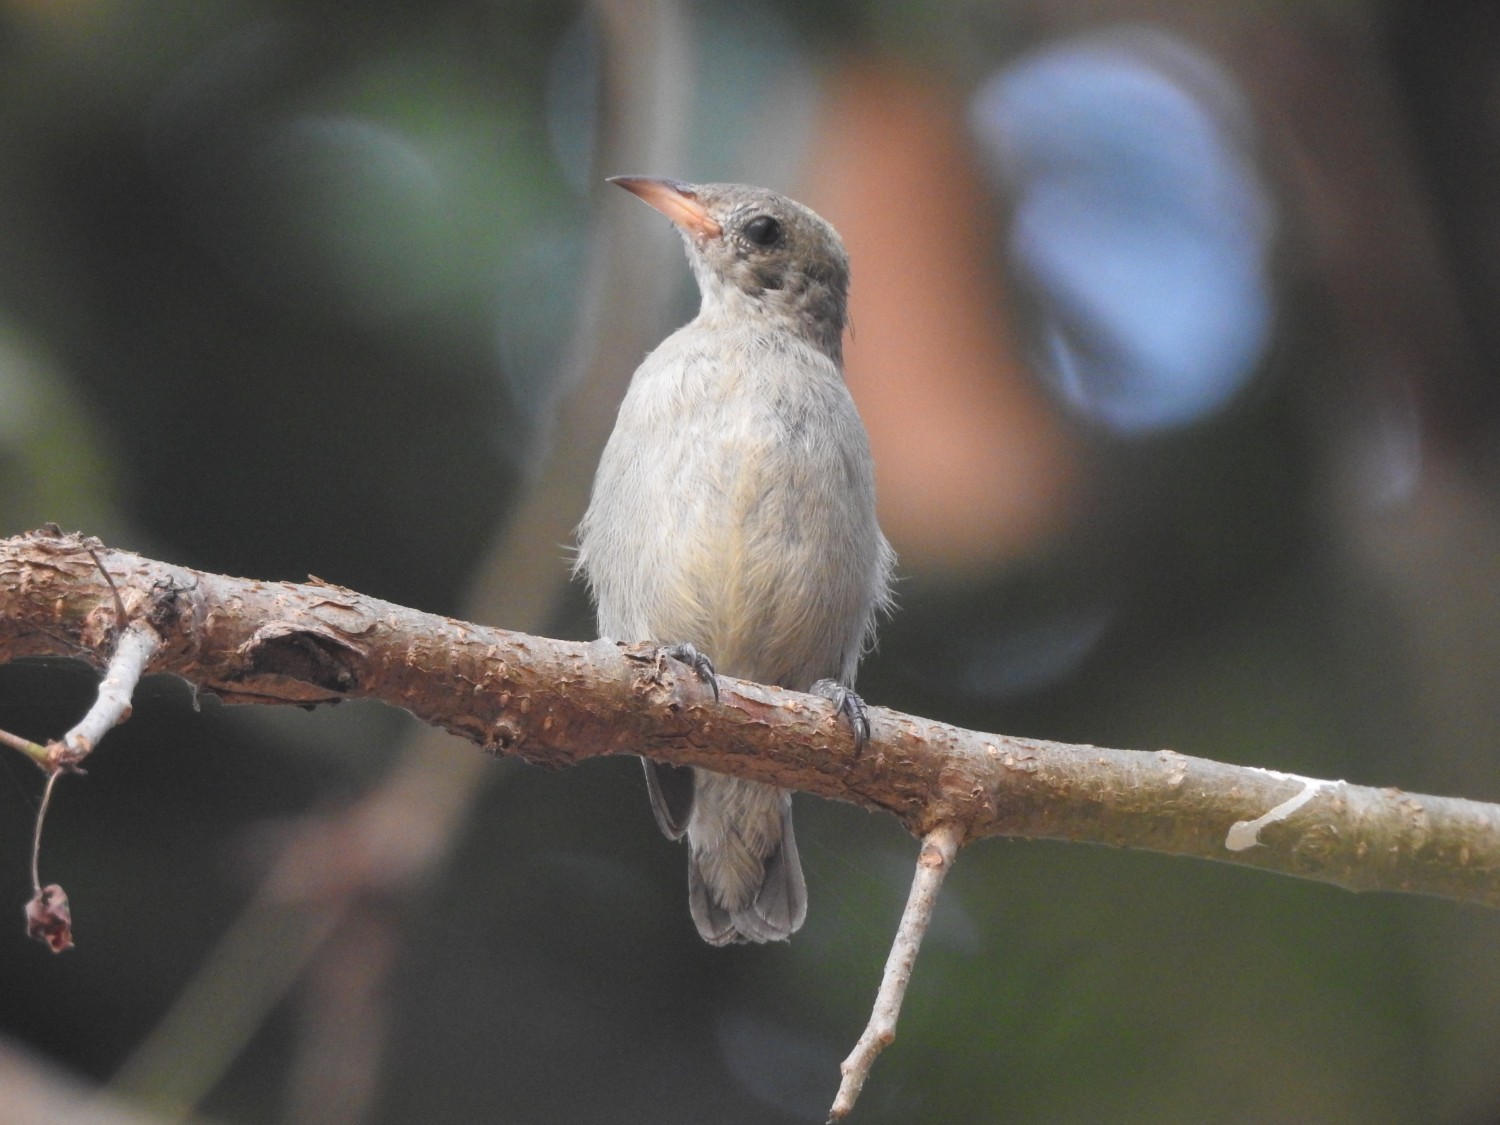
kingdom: Animalia
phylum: Chordata
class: Aves
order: Passeriformes
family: Dicaeidae
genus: Dicaeum
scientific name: Dicaeum erythrorhynchos
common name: Pale-billed flowerpecker
